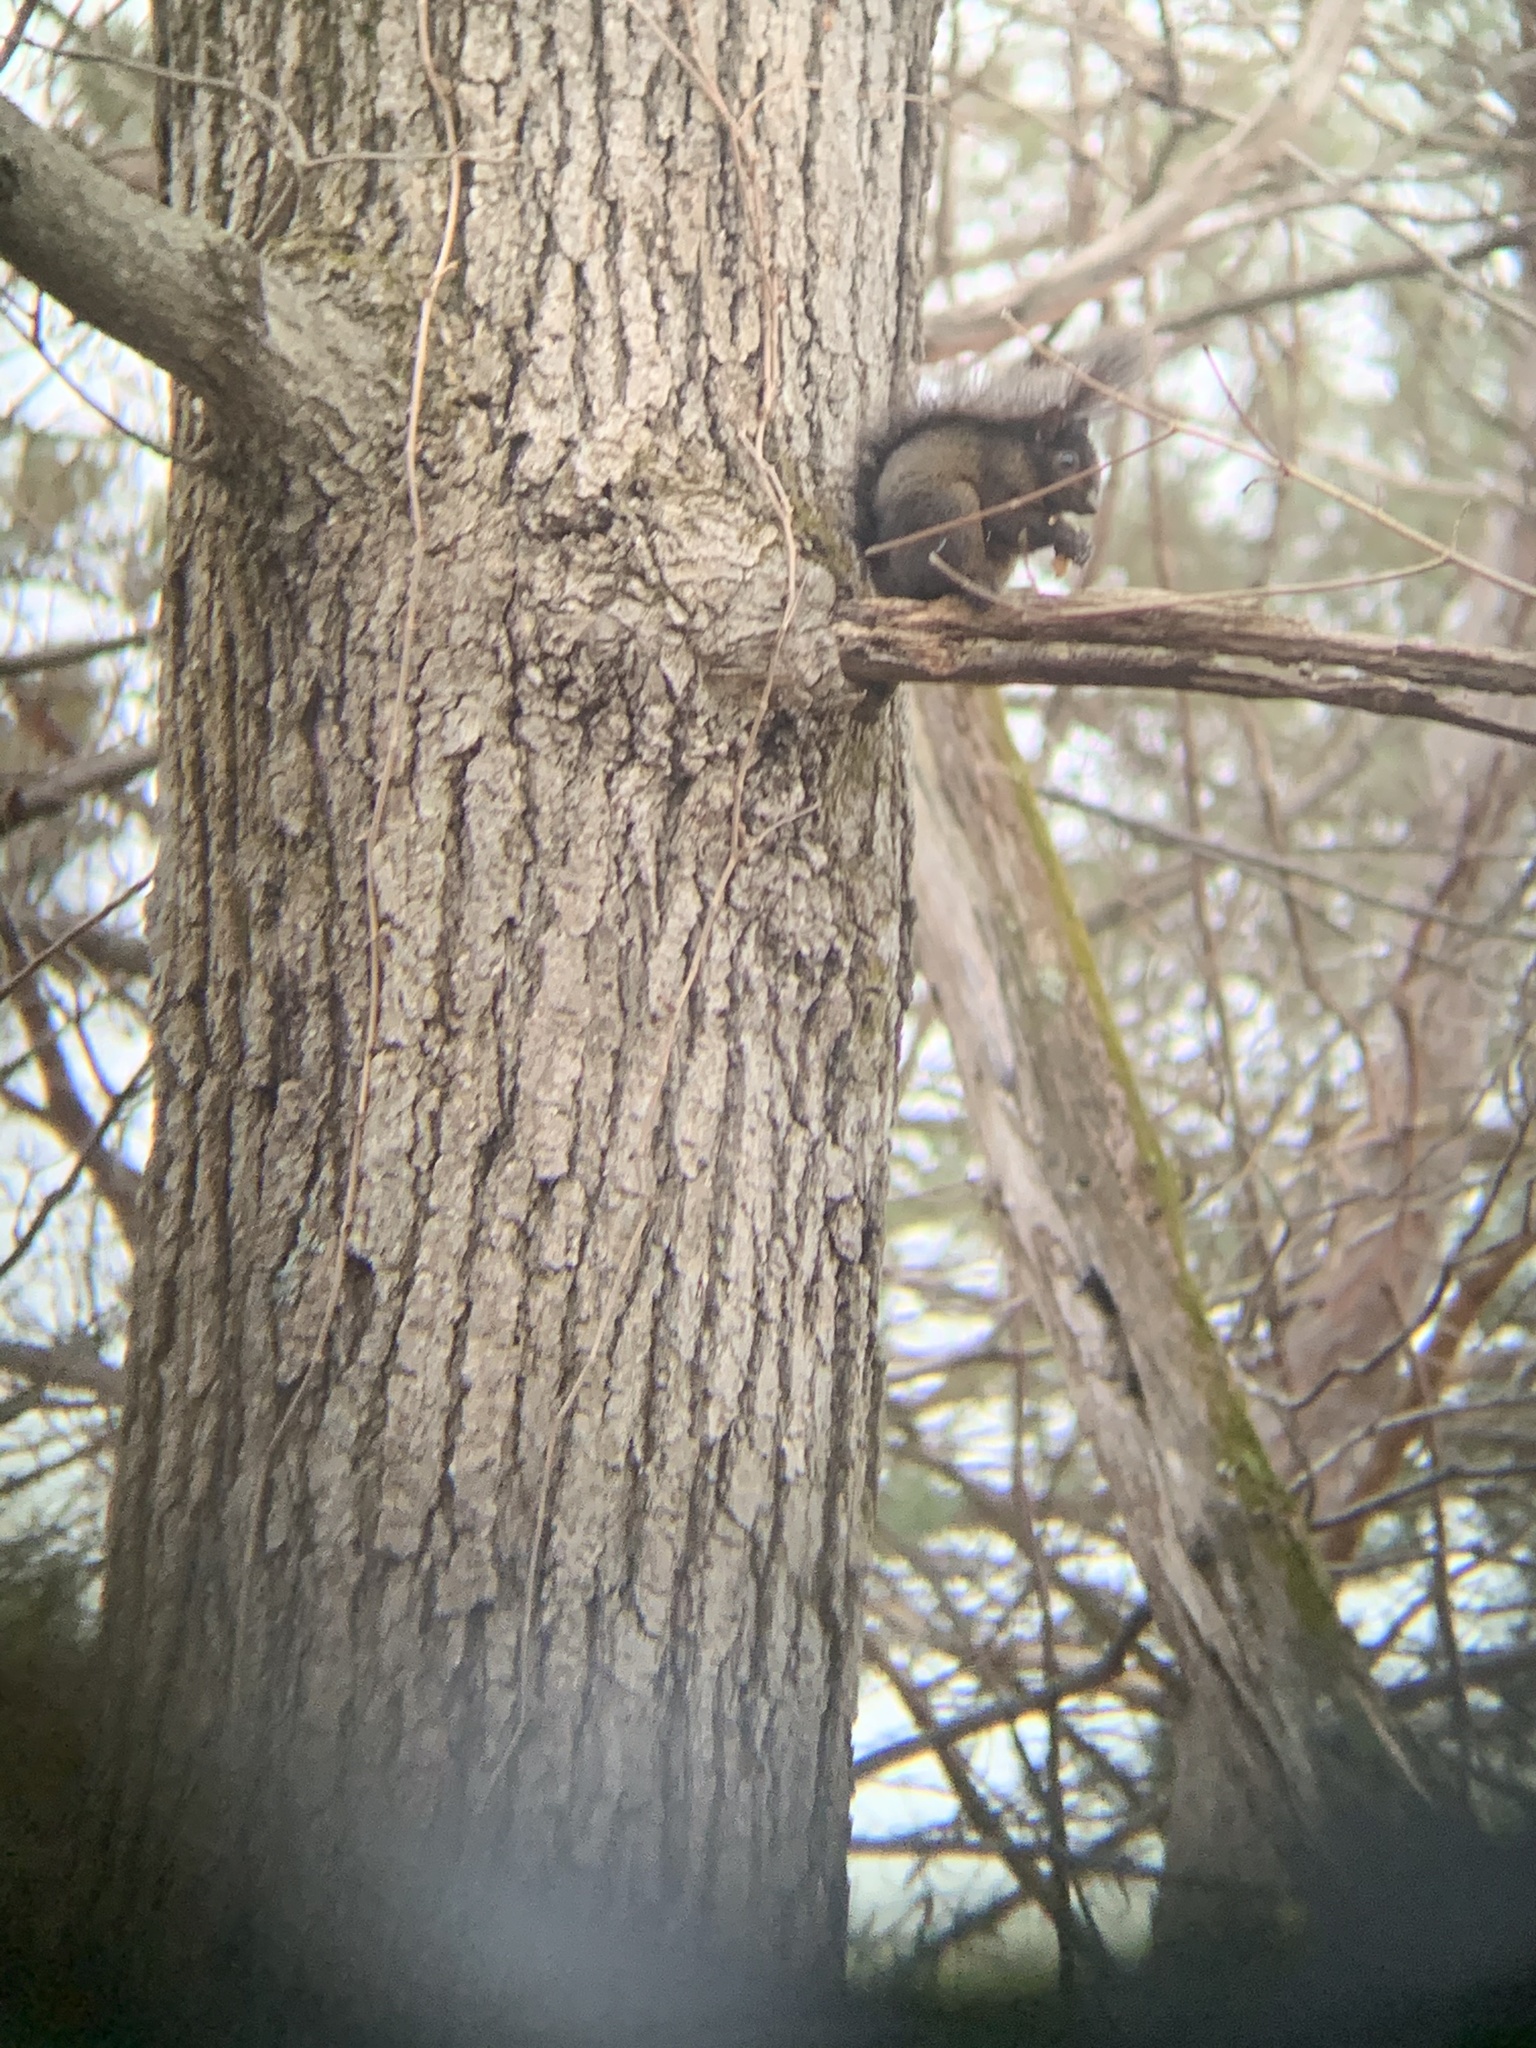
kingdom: Animalia
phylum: Chordata
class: Mammalia
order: Rodentia
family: Sciuridae
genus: Sciurus
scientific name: Sciurus carolinensis
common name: Eastern gray squirrel
